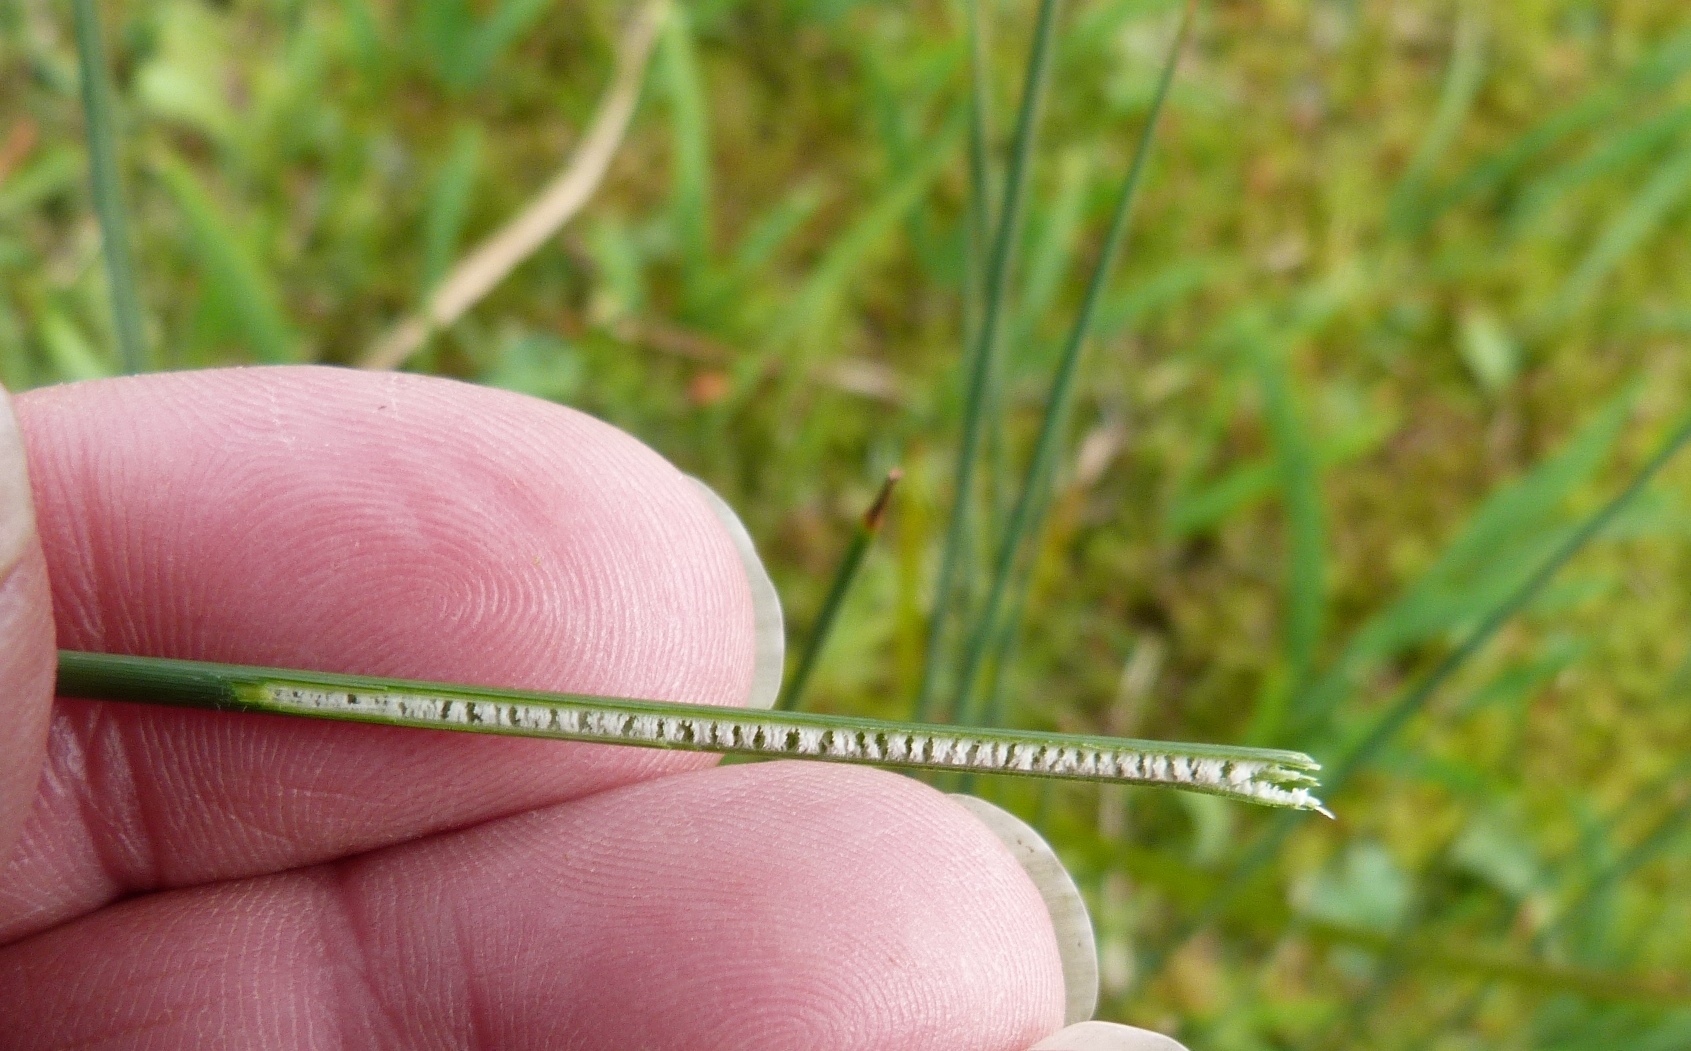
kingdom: Plantae
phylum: Tracheophyta
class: Liliopsida
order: Poales
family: Juncaceae
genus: Juncus
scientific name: Juncus sarophorus
